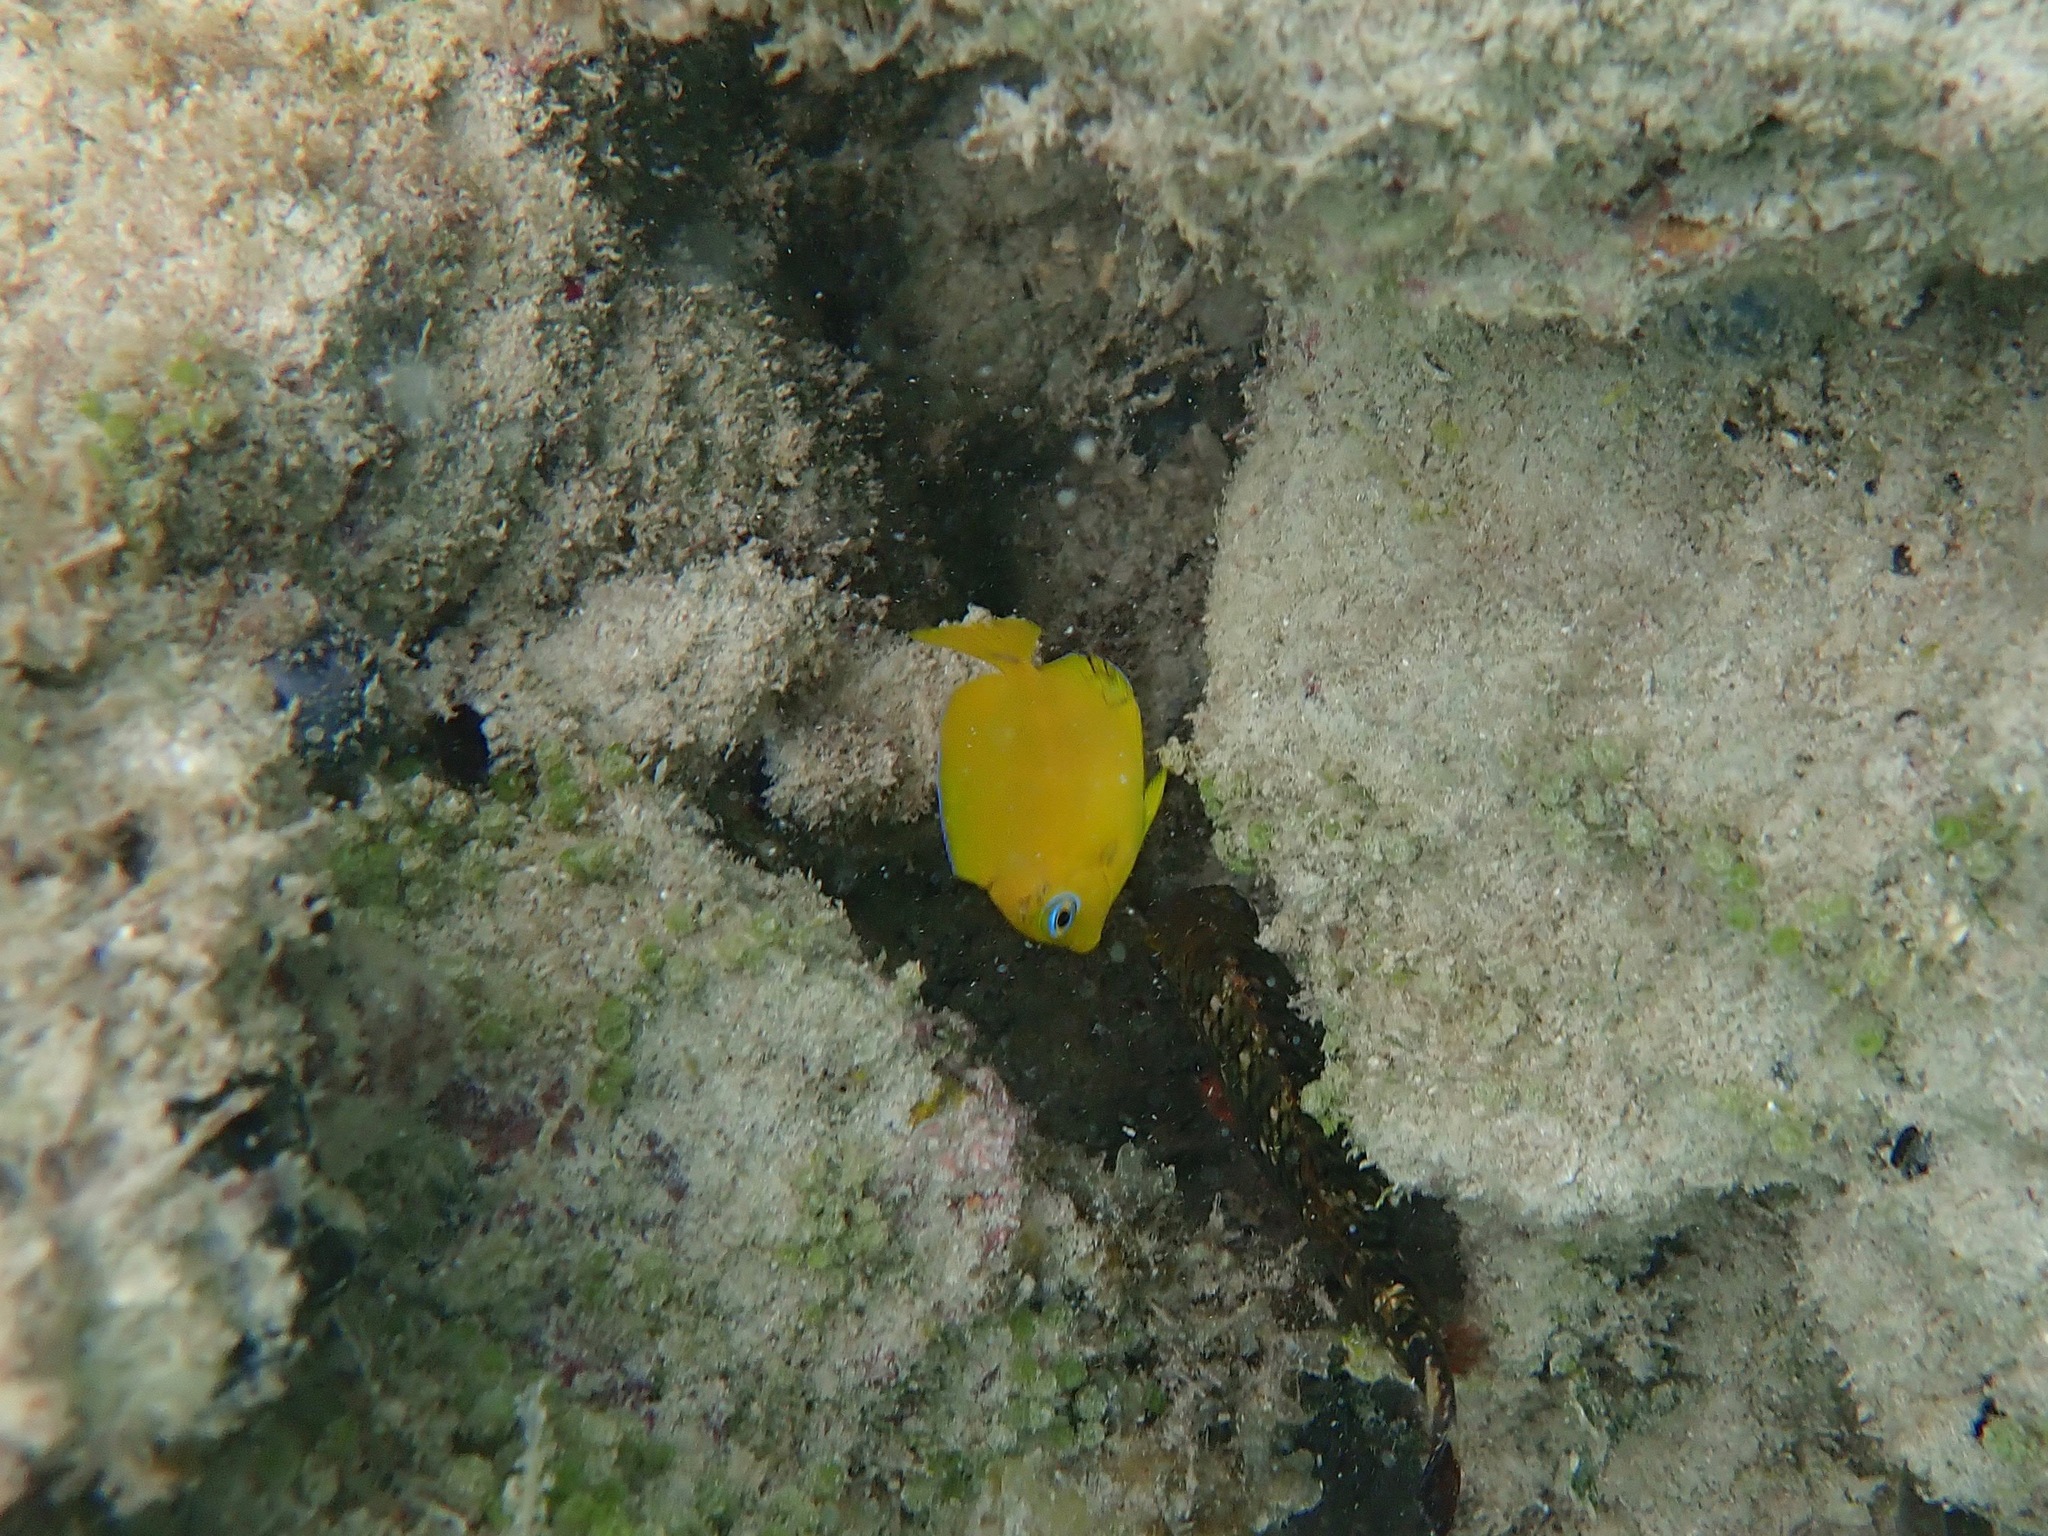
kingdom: Animalia
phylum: Chordata
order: Perciformes
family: Acanthuridae
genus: Acanthurus
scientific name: Acanthurus coeruleus
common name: Blue tang
